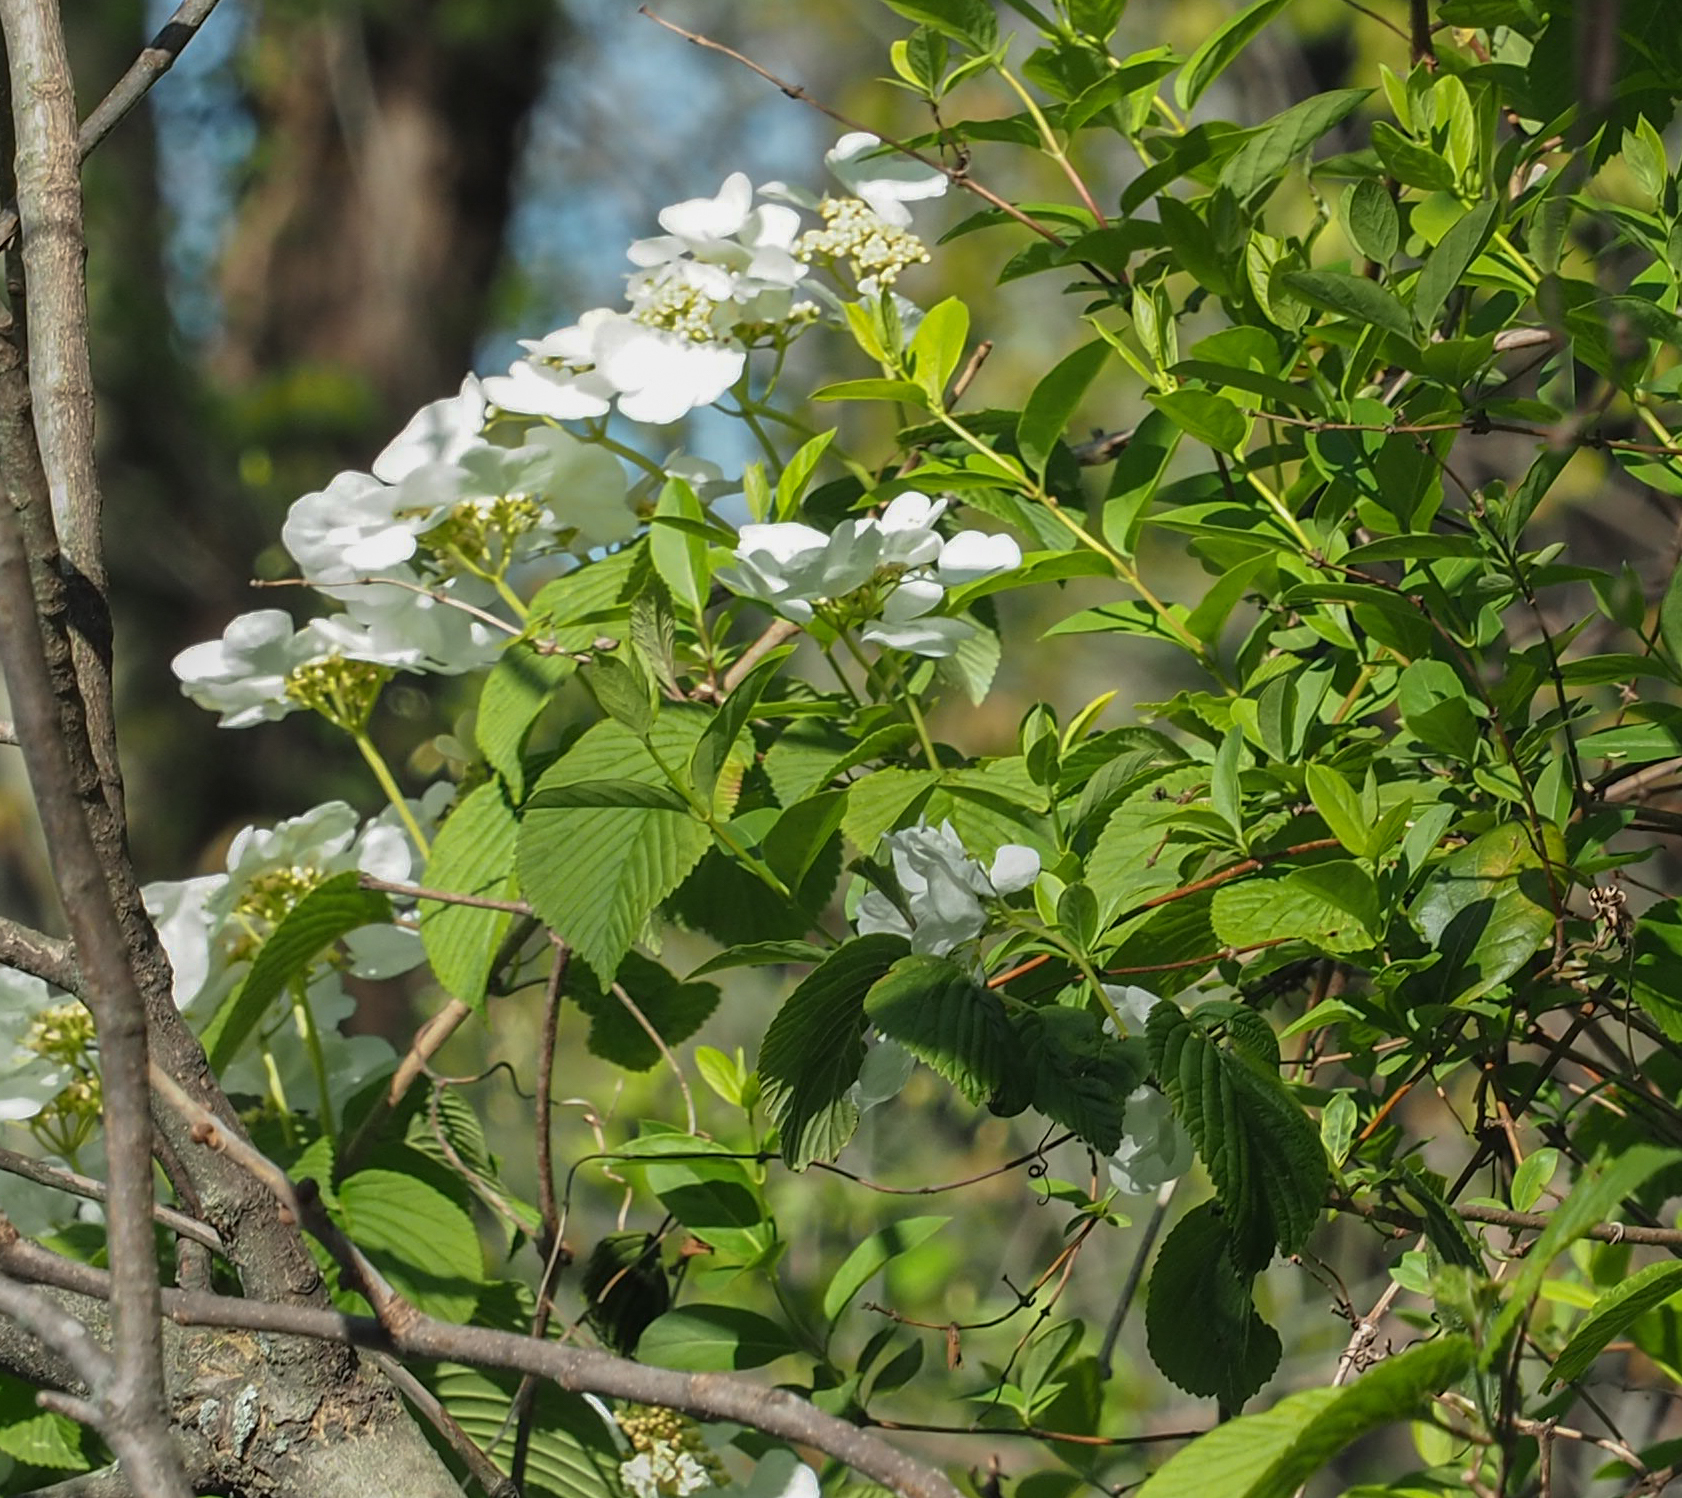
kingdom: Plantae
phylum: Tracheophyta
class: Magnoliopsida
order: Dipsacales
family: Viburnaceae
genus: Viburnum
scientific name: Viburnum plicatum
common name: Japanese snowball
